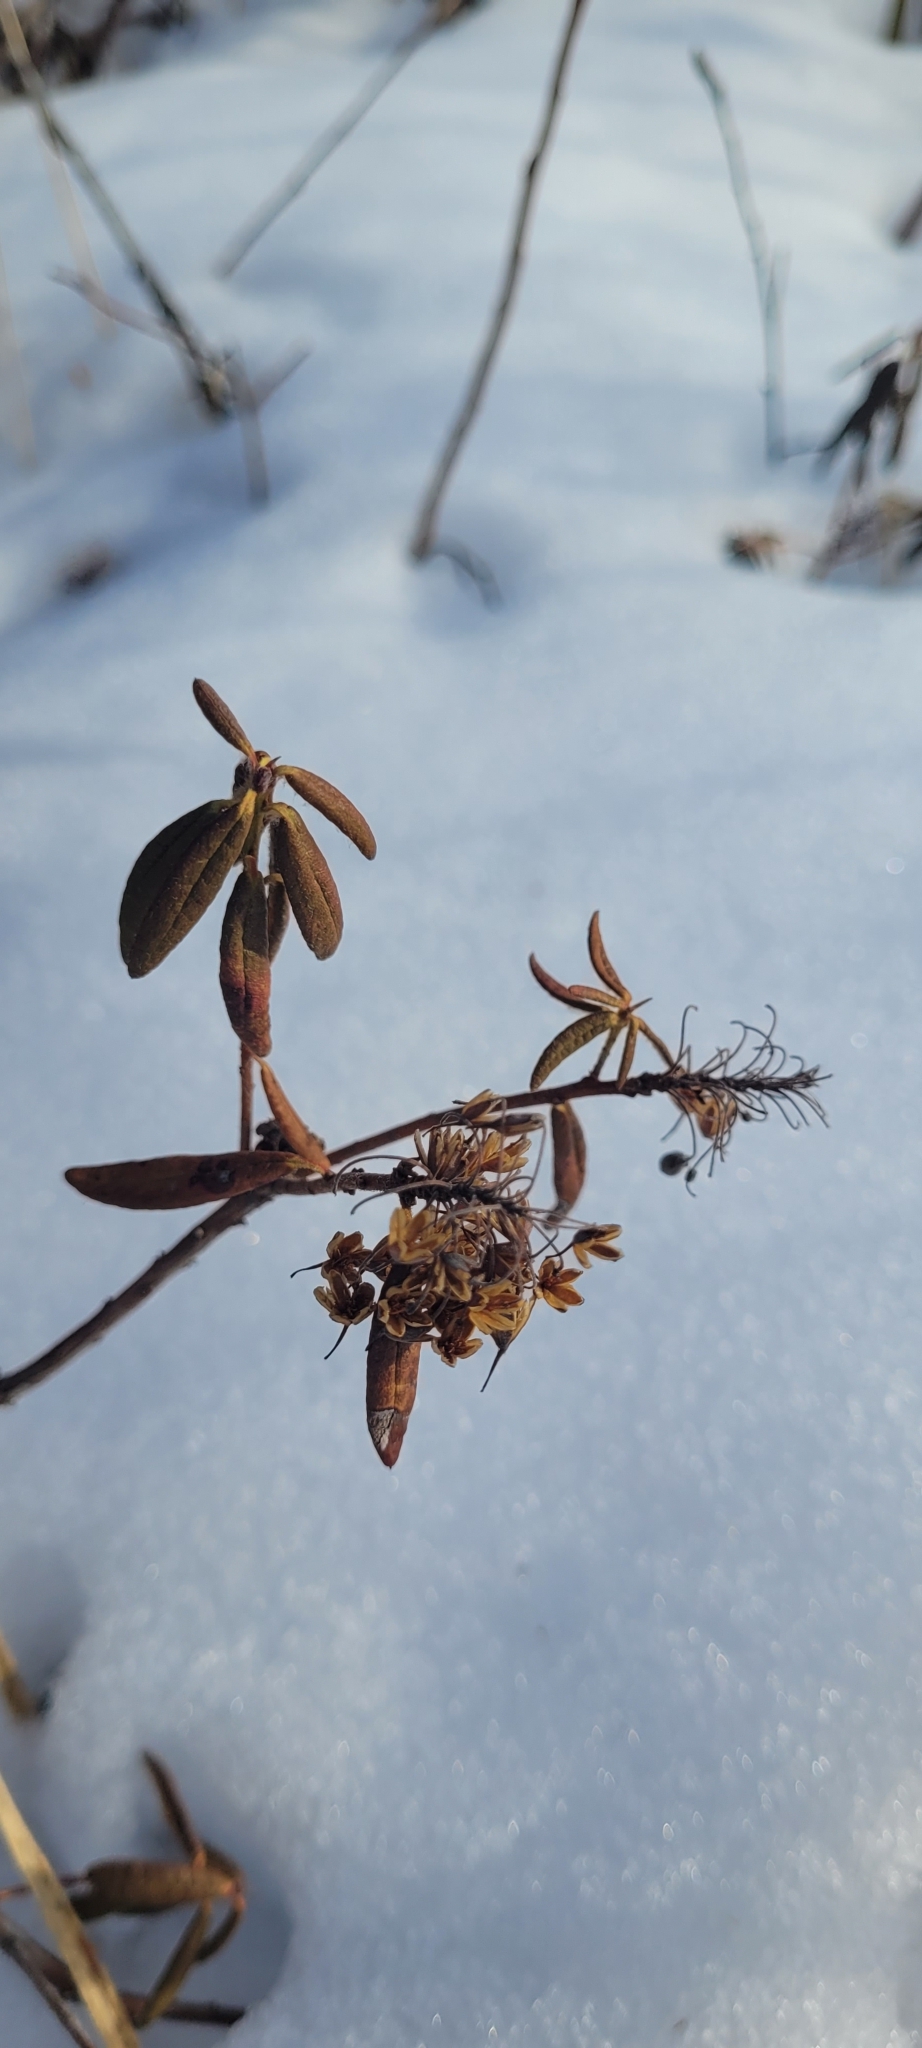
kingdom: Plantae
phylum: Tracheophyta
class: Magnoliopsida
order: Ericales
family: Ericaceae
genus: Rhododendron
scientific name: Rhododendron groenlandicum
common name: Bog labrador tea
